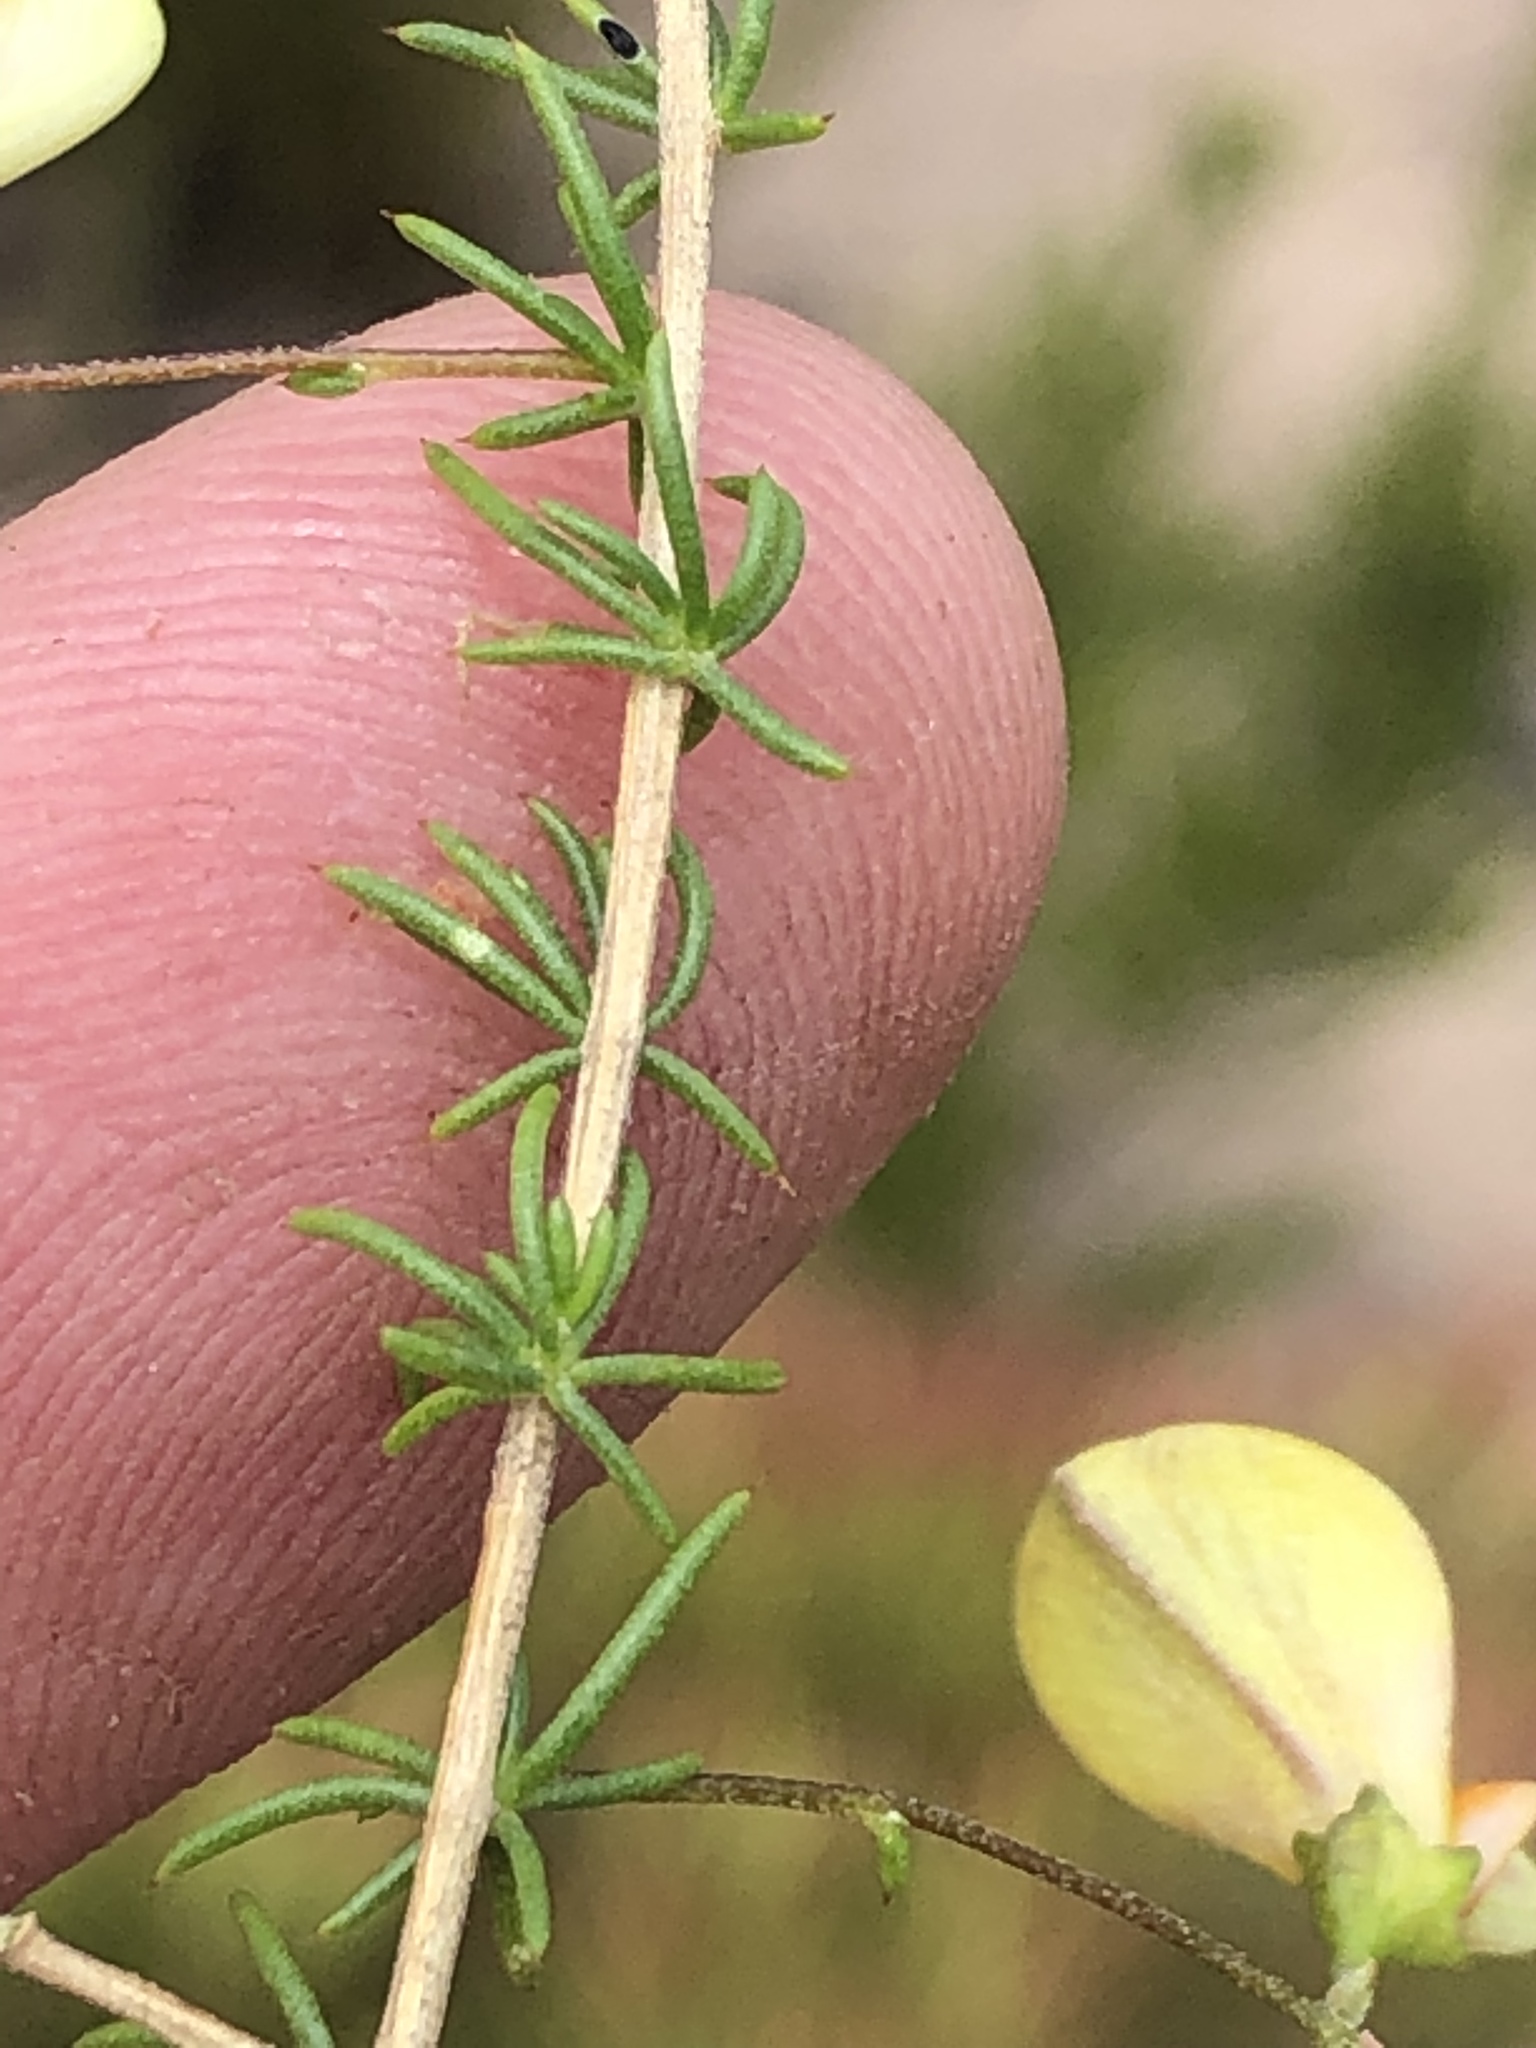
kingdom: Plantae
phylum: Tracheophyta
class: Magnoliopsida
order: Fabales
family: Fabaceae
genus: Aspalathus
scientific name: Aspalathus biflora
